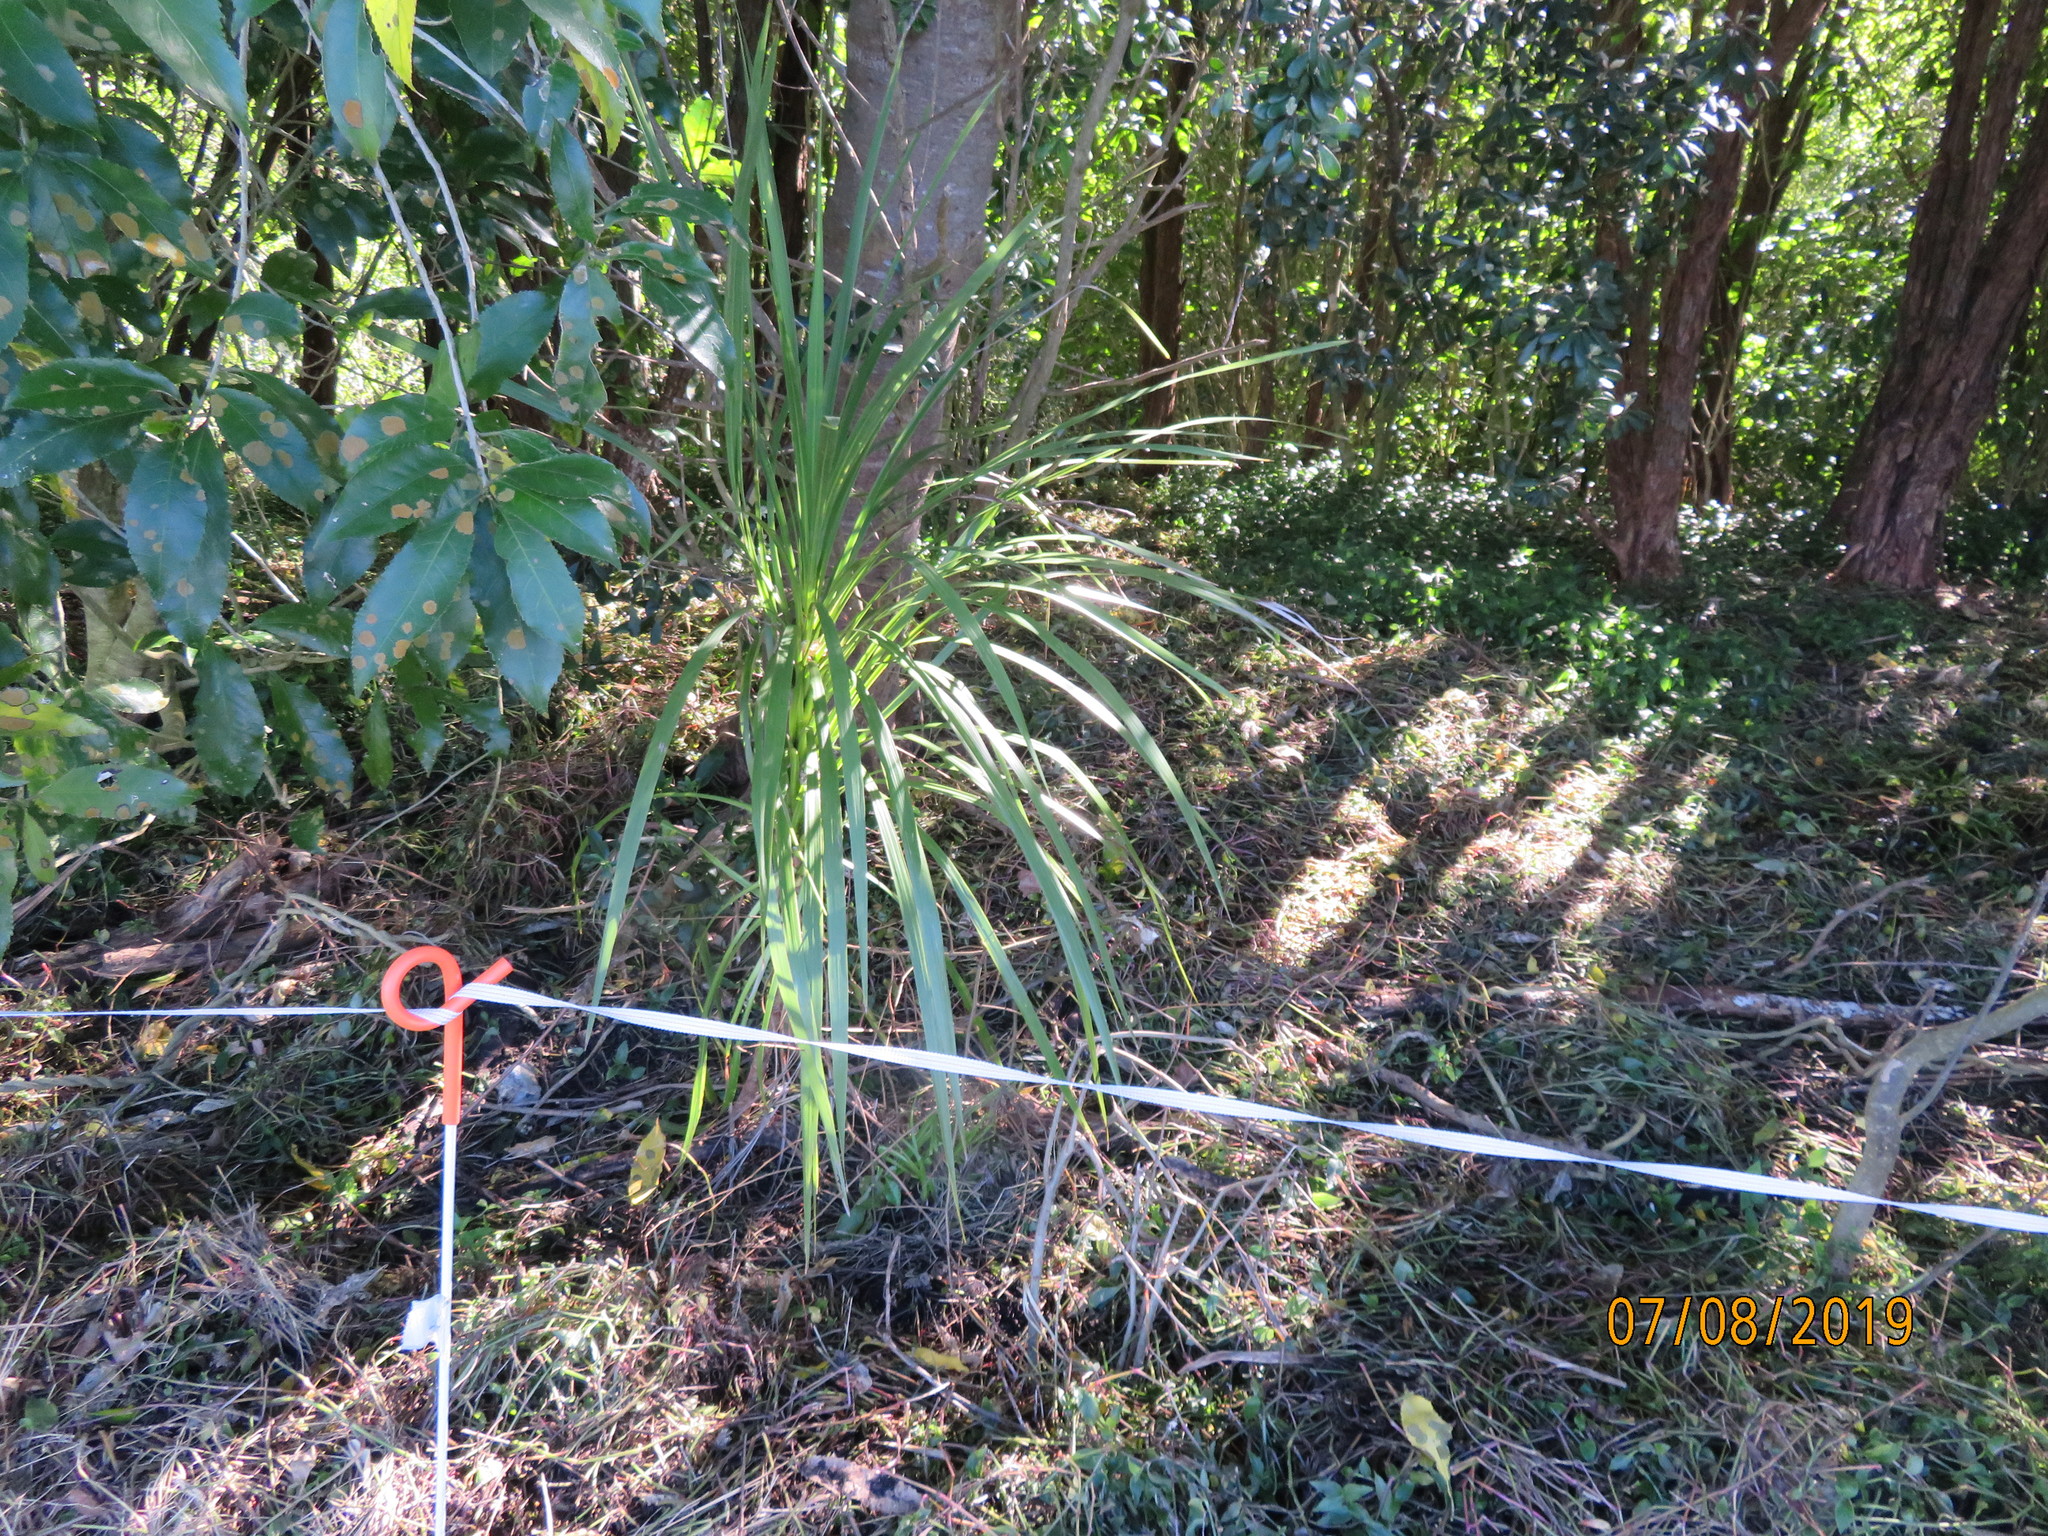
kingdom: Plantae
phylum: Tracheophyta
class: Liliopsida
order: Asparagales
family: Asparagaceae
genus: Cordyline
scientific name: Cordyline australis
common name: Cabbage-palm
